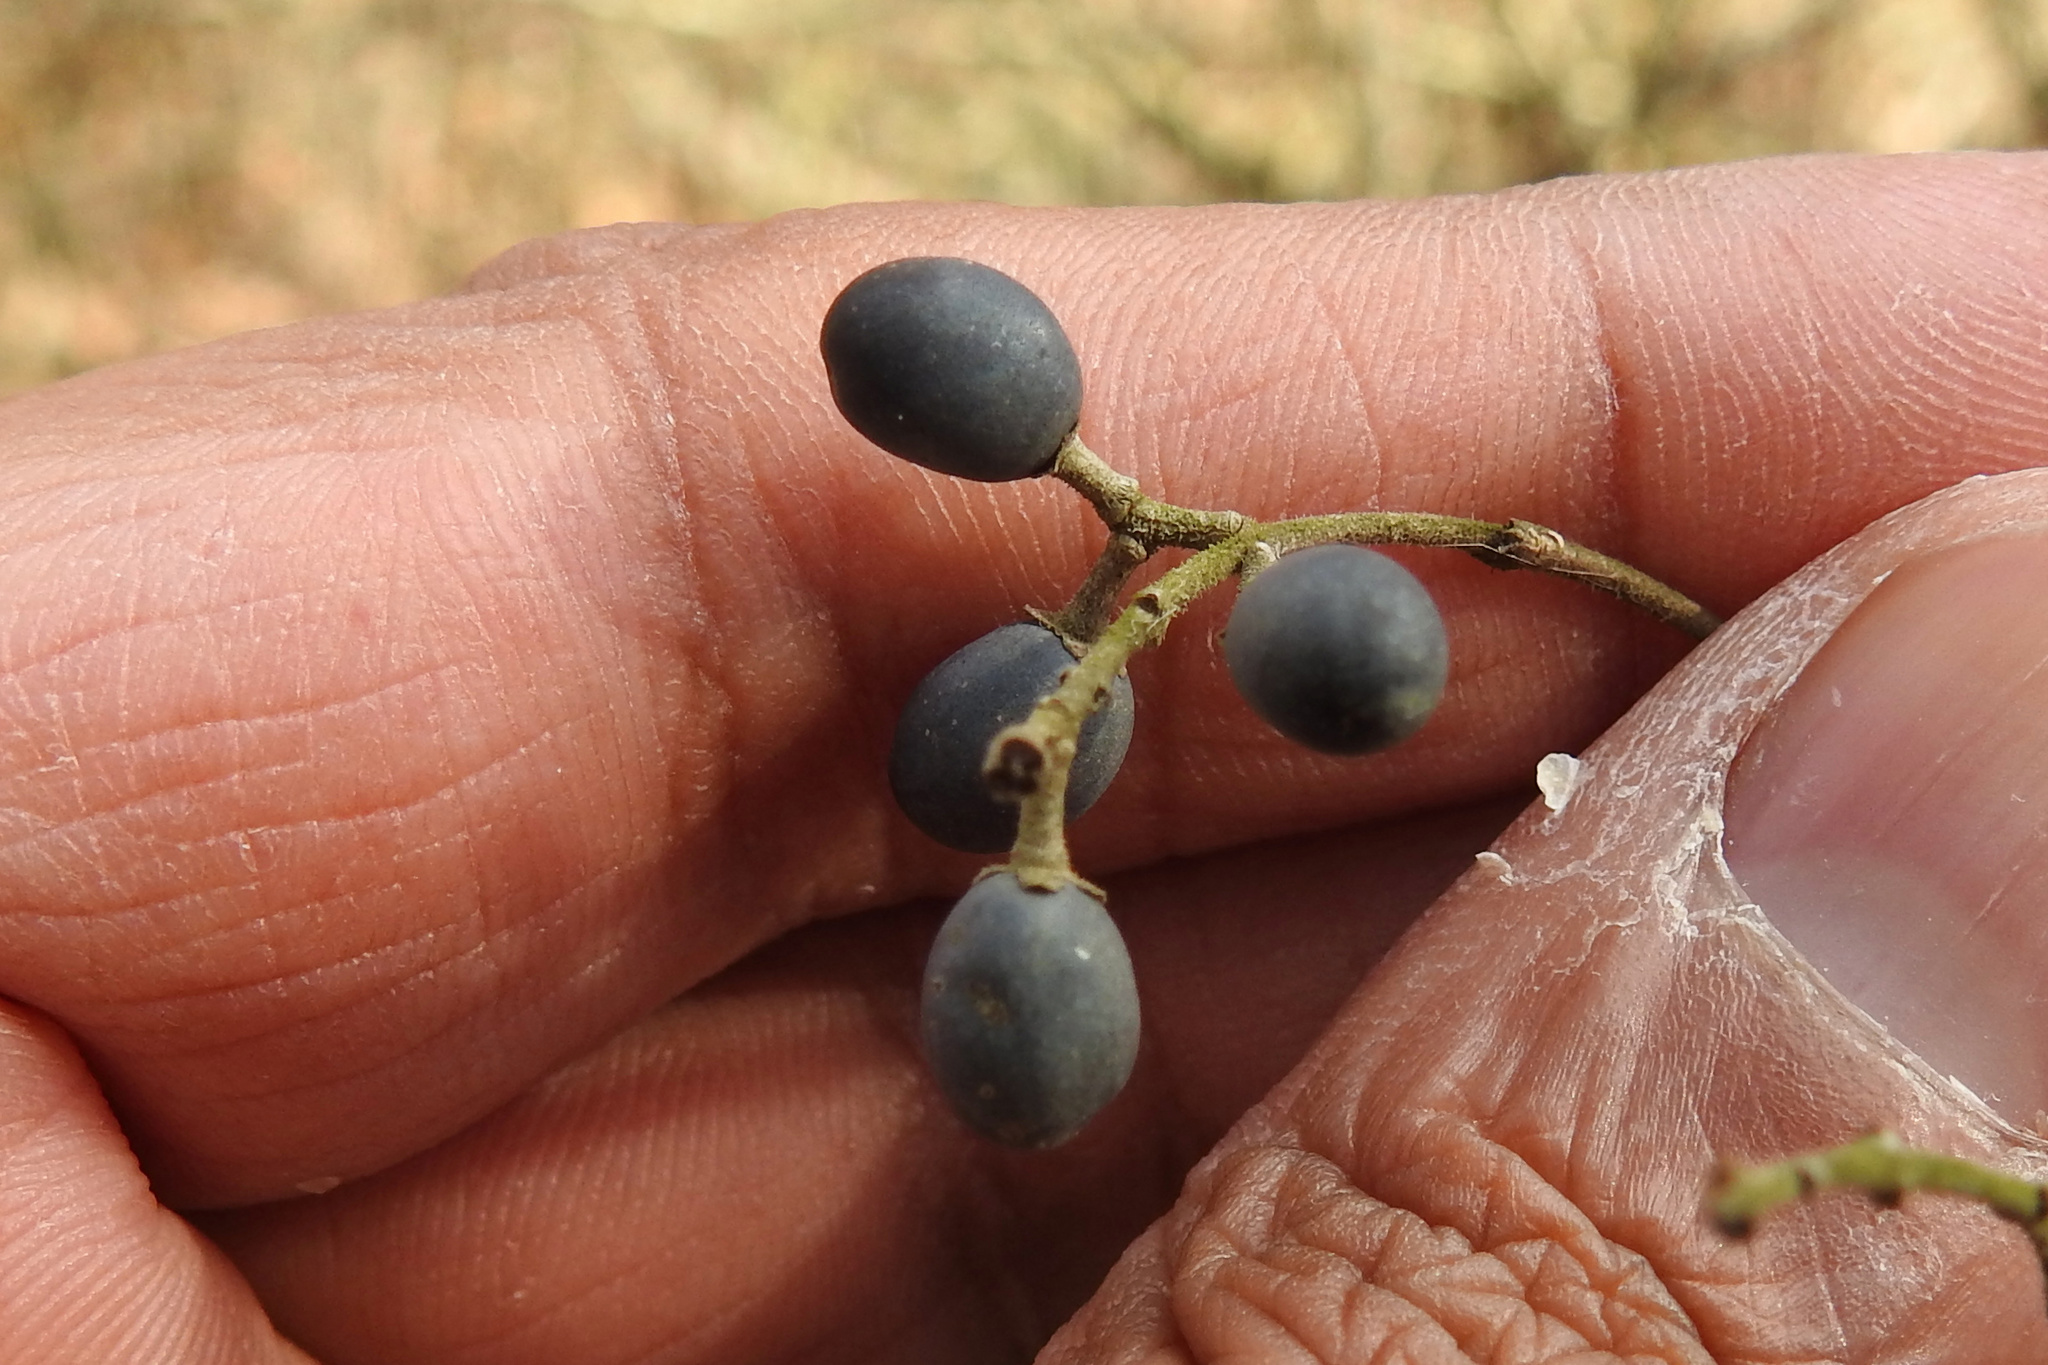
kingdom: Plantae
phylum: Tracheophyta
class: Magnoliopsida
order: Lamiales
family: Oleaceae
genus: Ligustrum
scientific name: Ligustrum obtusifolium
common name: Border privet
